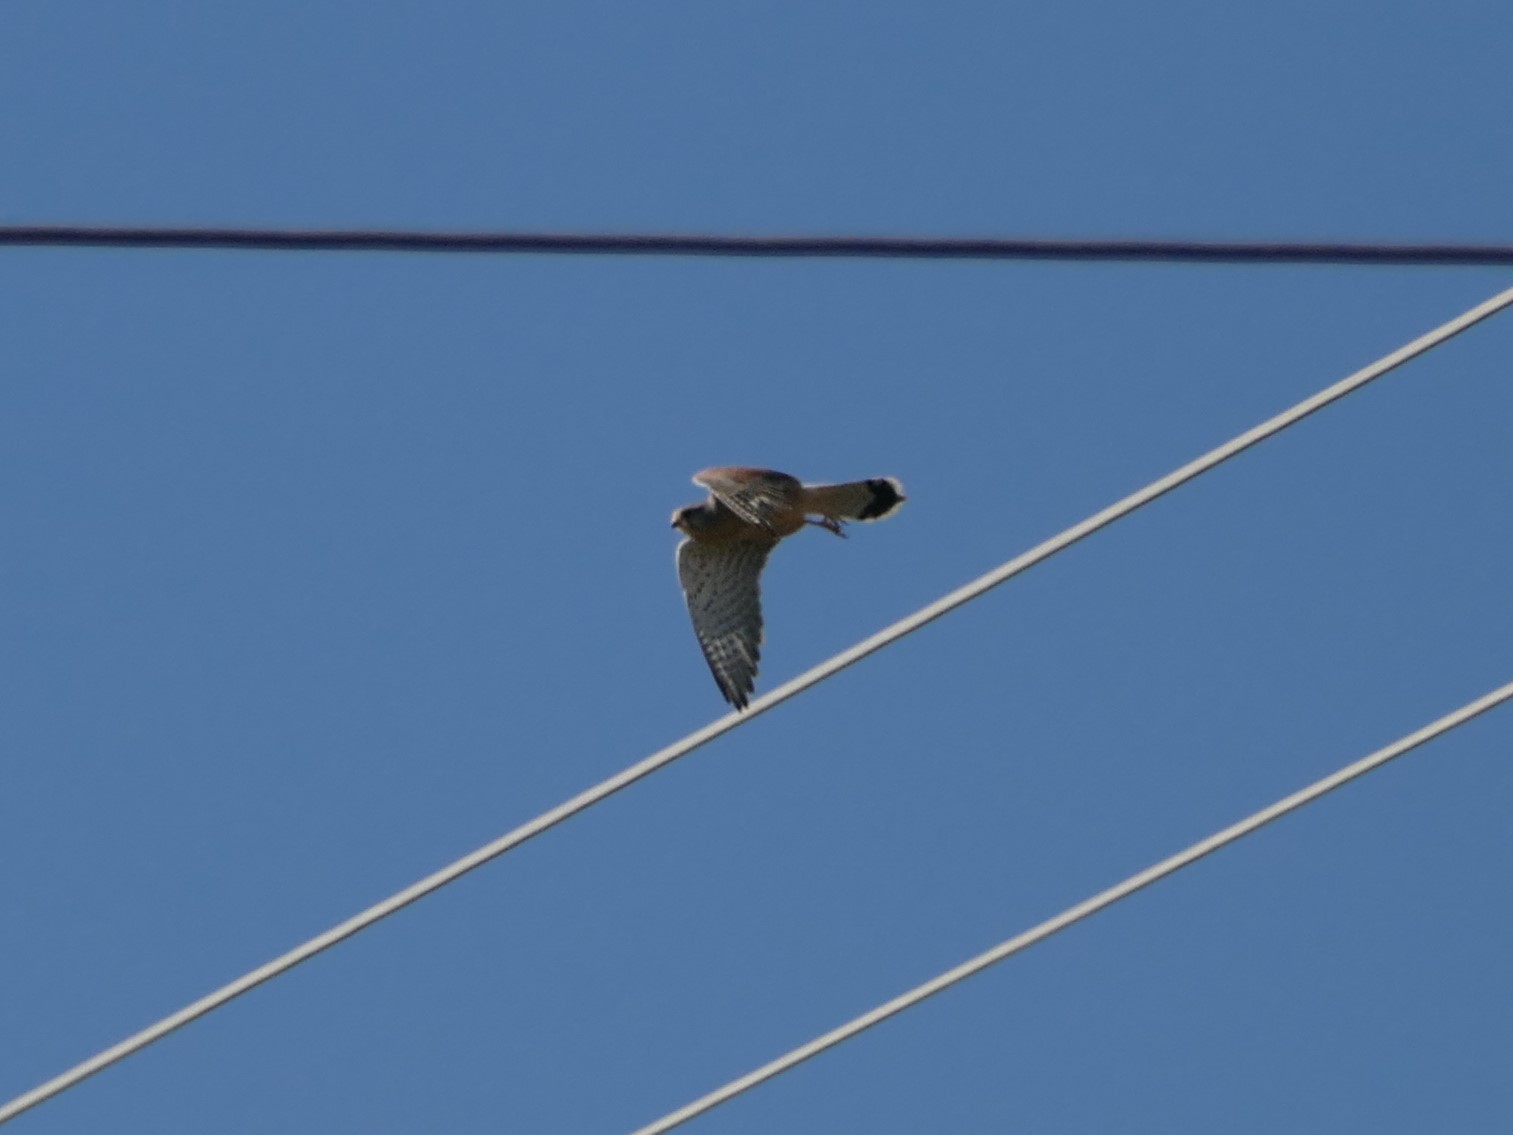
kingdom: Animalia
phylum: Chordata
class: Aves
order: Falconiformes
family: Falconidae
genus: Falco
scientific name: Falco tinnunculus
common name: Common kestrel
